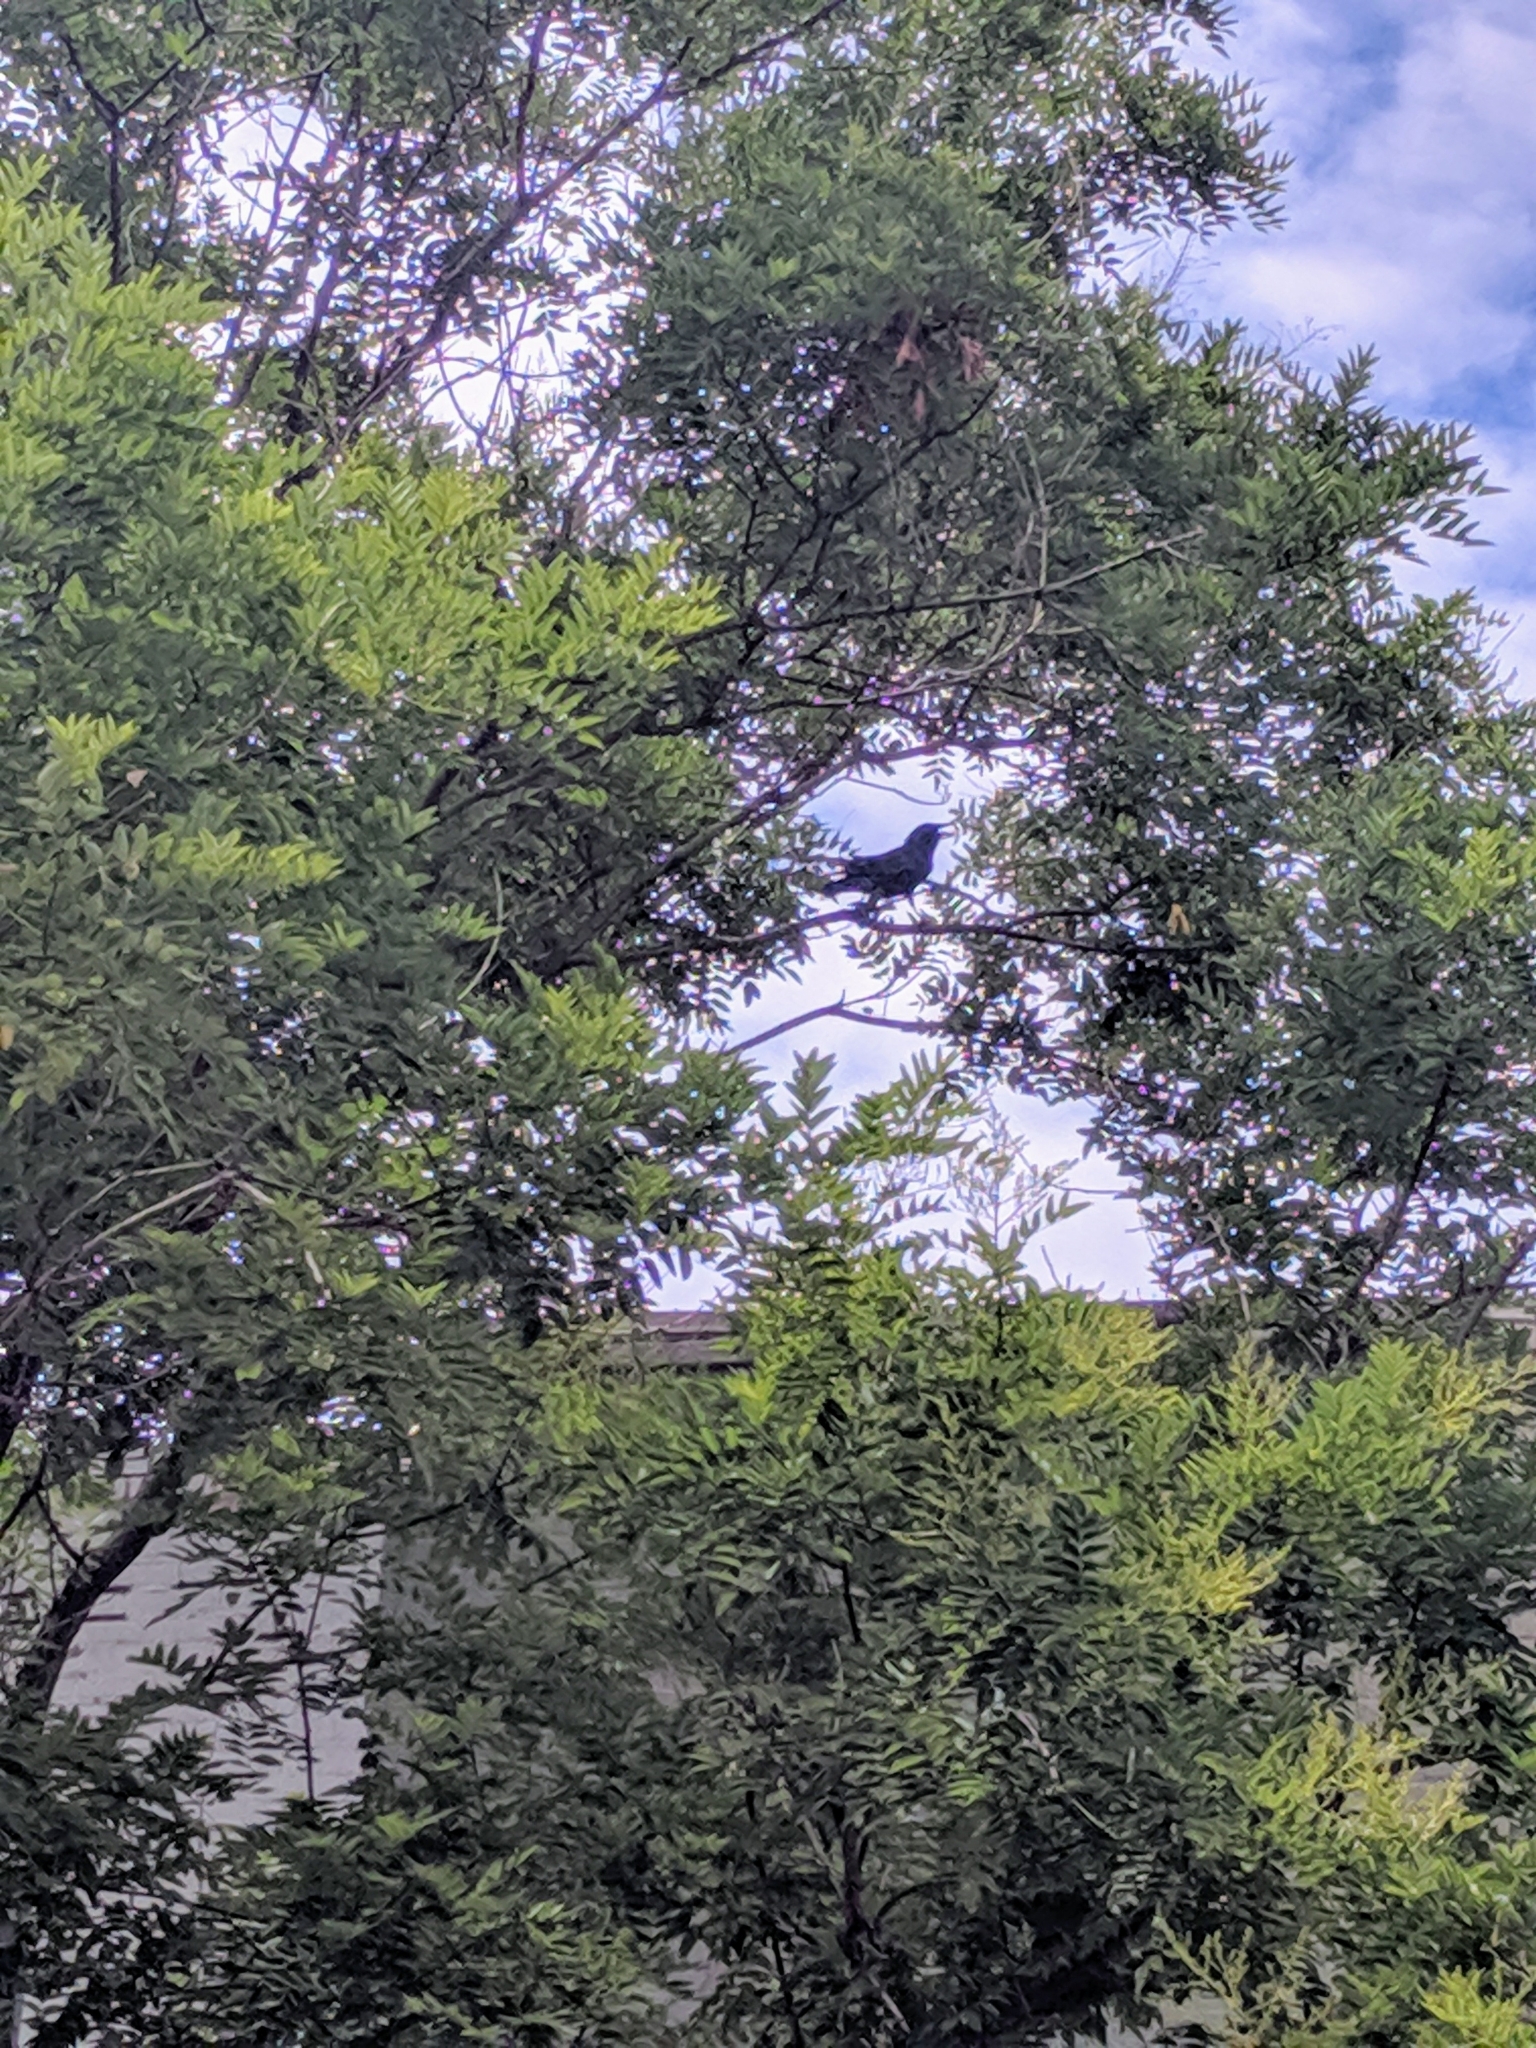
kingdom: Animalia
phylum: Chordata
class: Aves
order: Passeriformes
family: Corvidae
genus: Corvus
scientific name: Corvus ossifragus
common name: Fish crow
